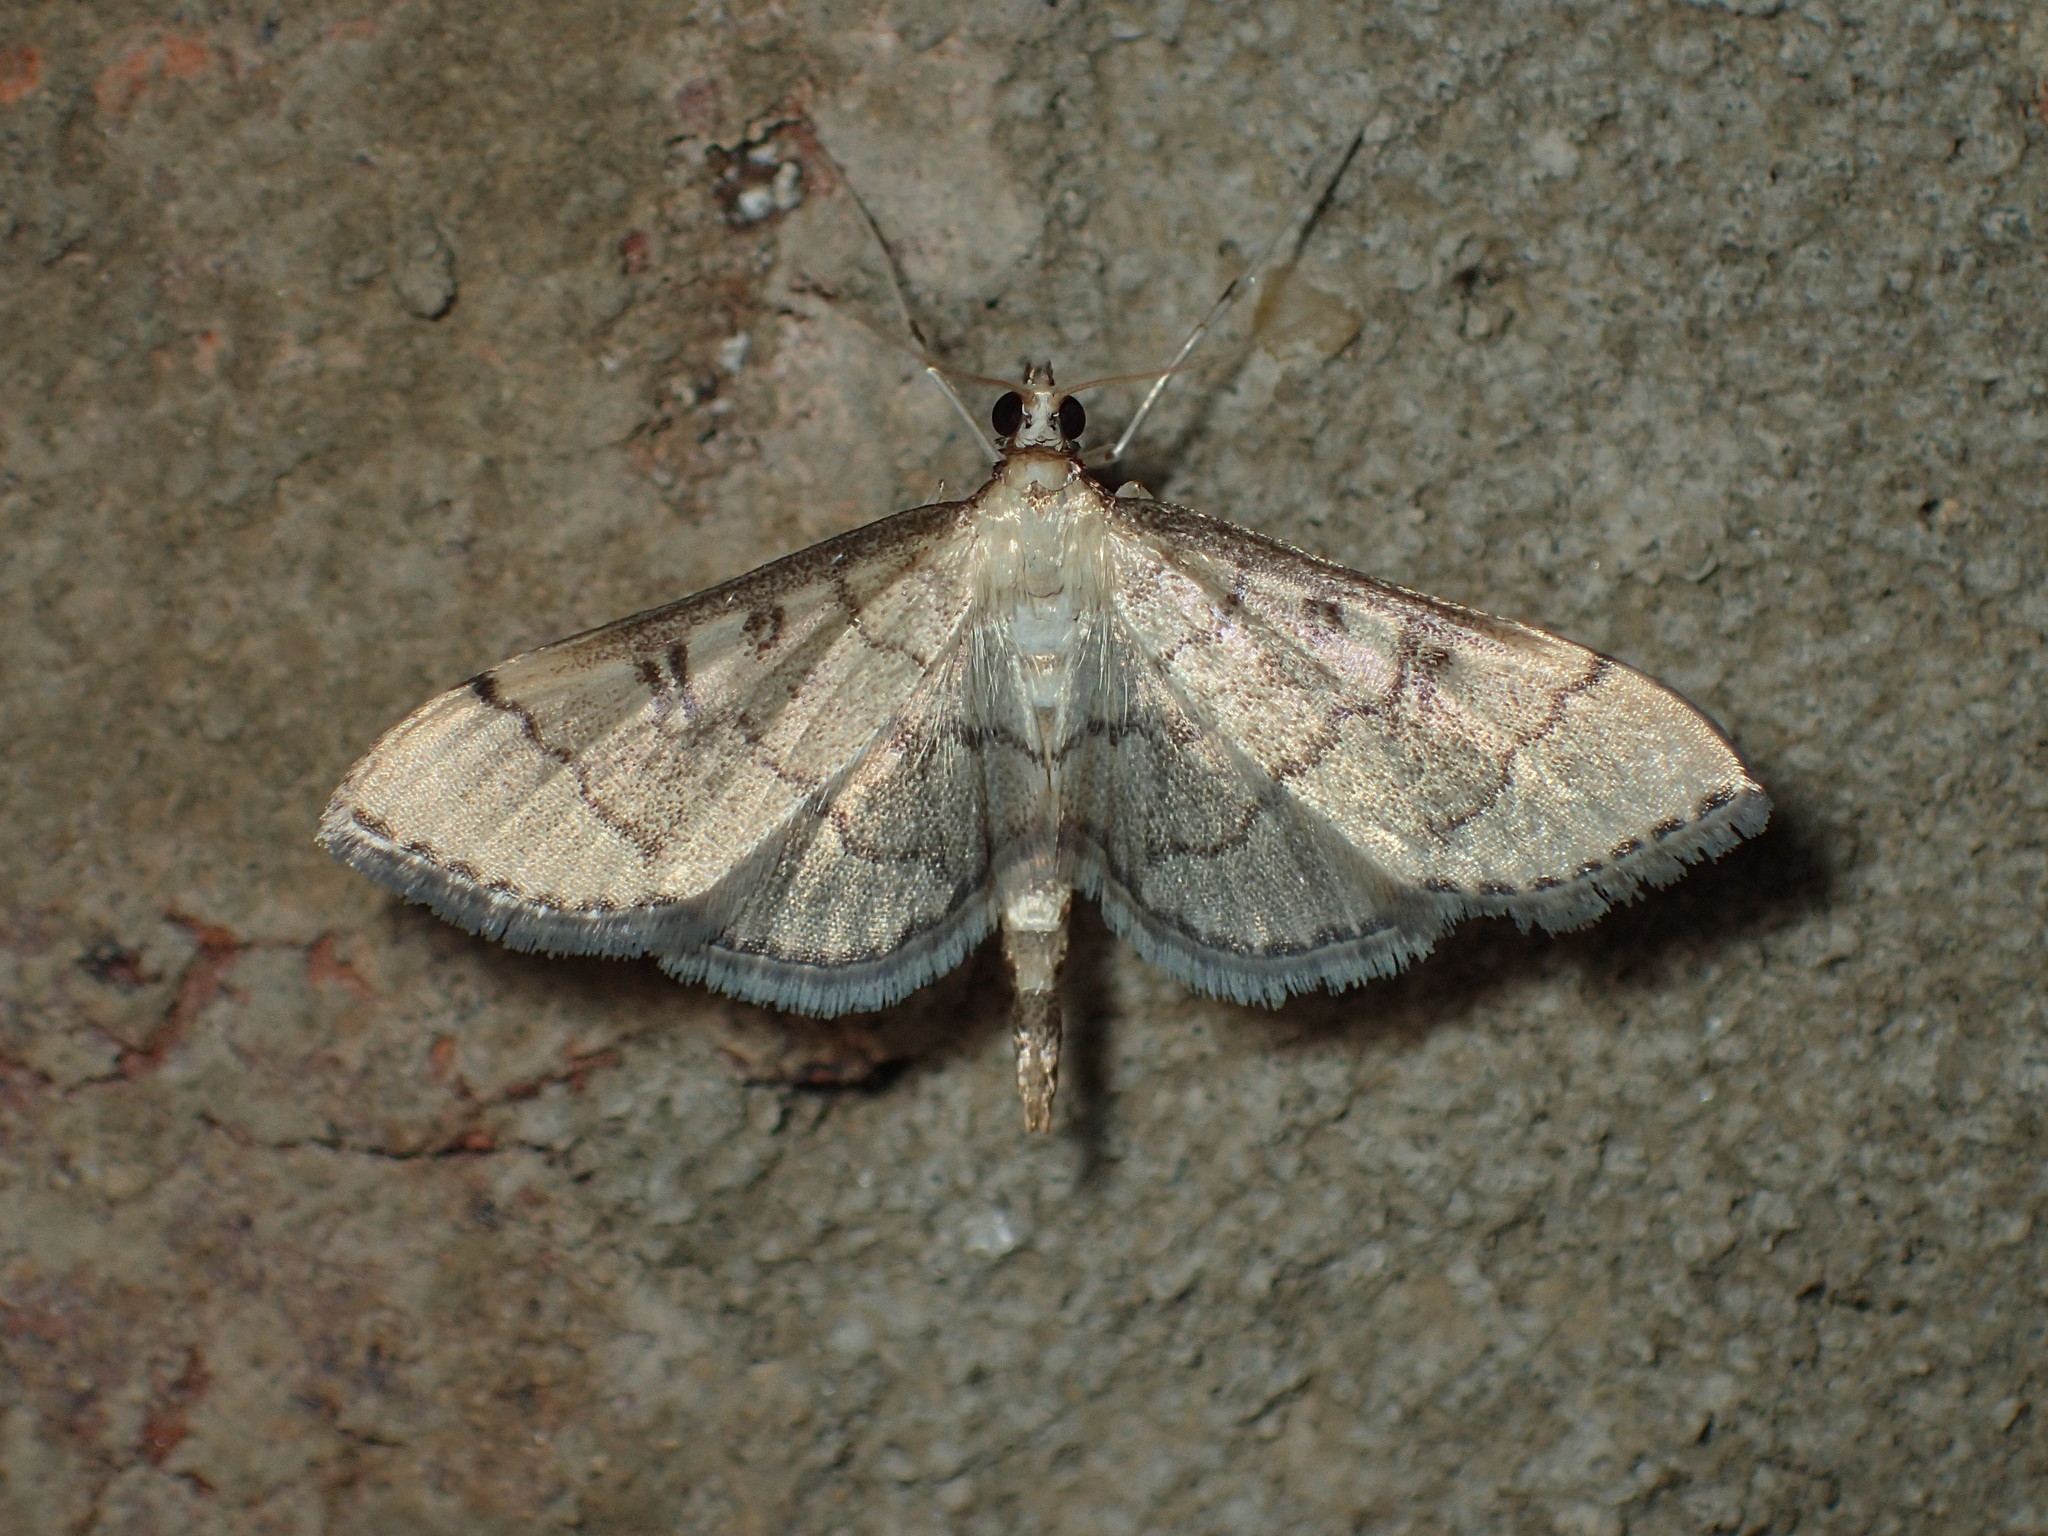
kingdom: Animalia
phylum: Arthropoda
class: Insecta
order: Lepidoptera
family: Crambidae
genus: Lamprosema
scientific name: Lamprosema Blepharomastix ranalis
